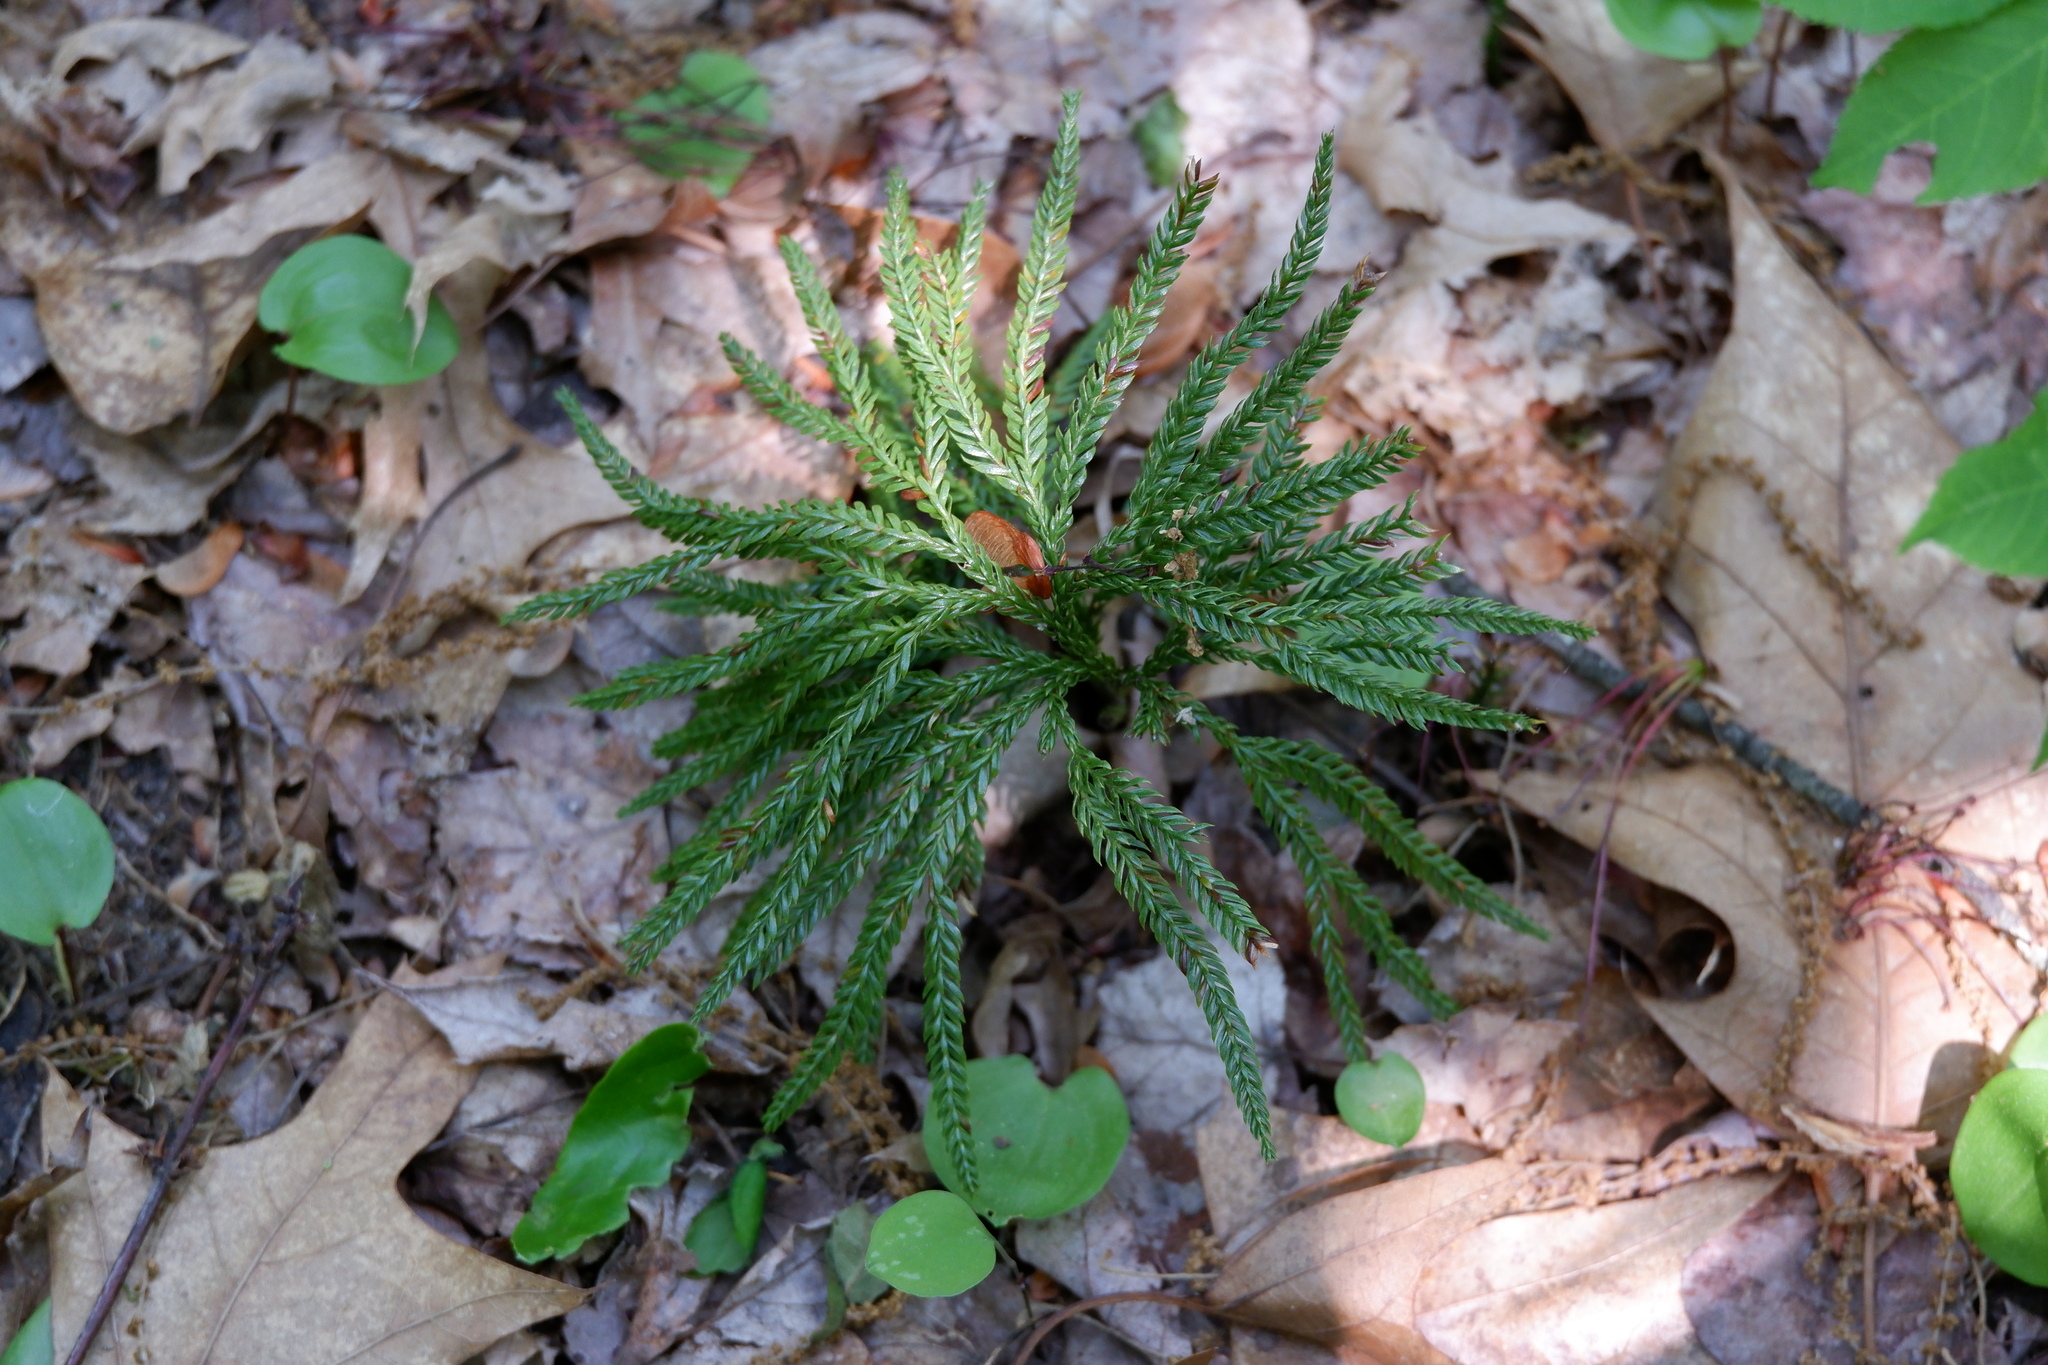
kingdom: Plantae
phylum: Tracheophyta
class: Lycopodiopsida
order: Lycopodiales
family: Lycopodiaceae
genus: Dendrolycopodium
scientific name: Dendrolycopodium obscurum
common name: Common ground-pine
